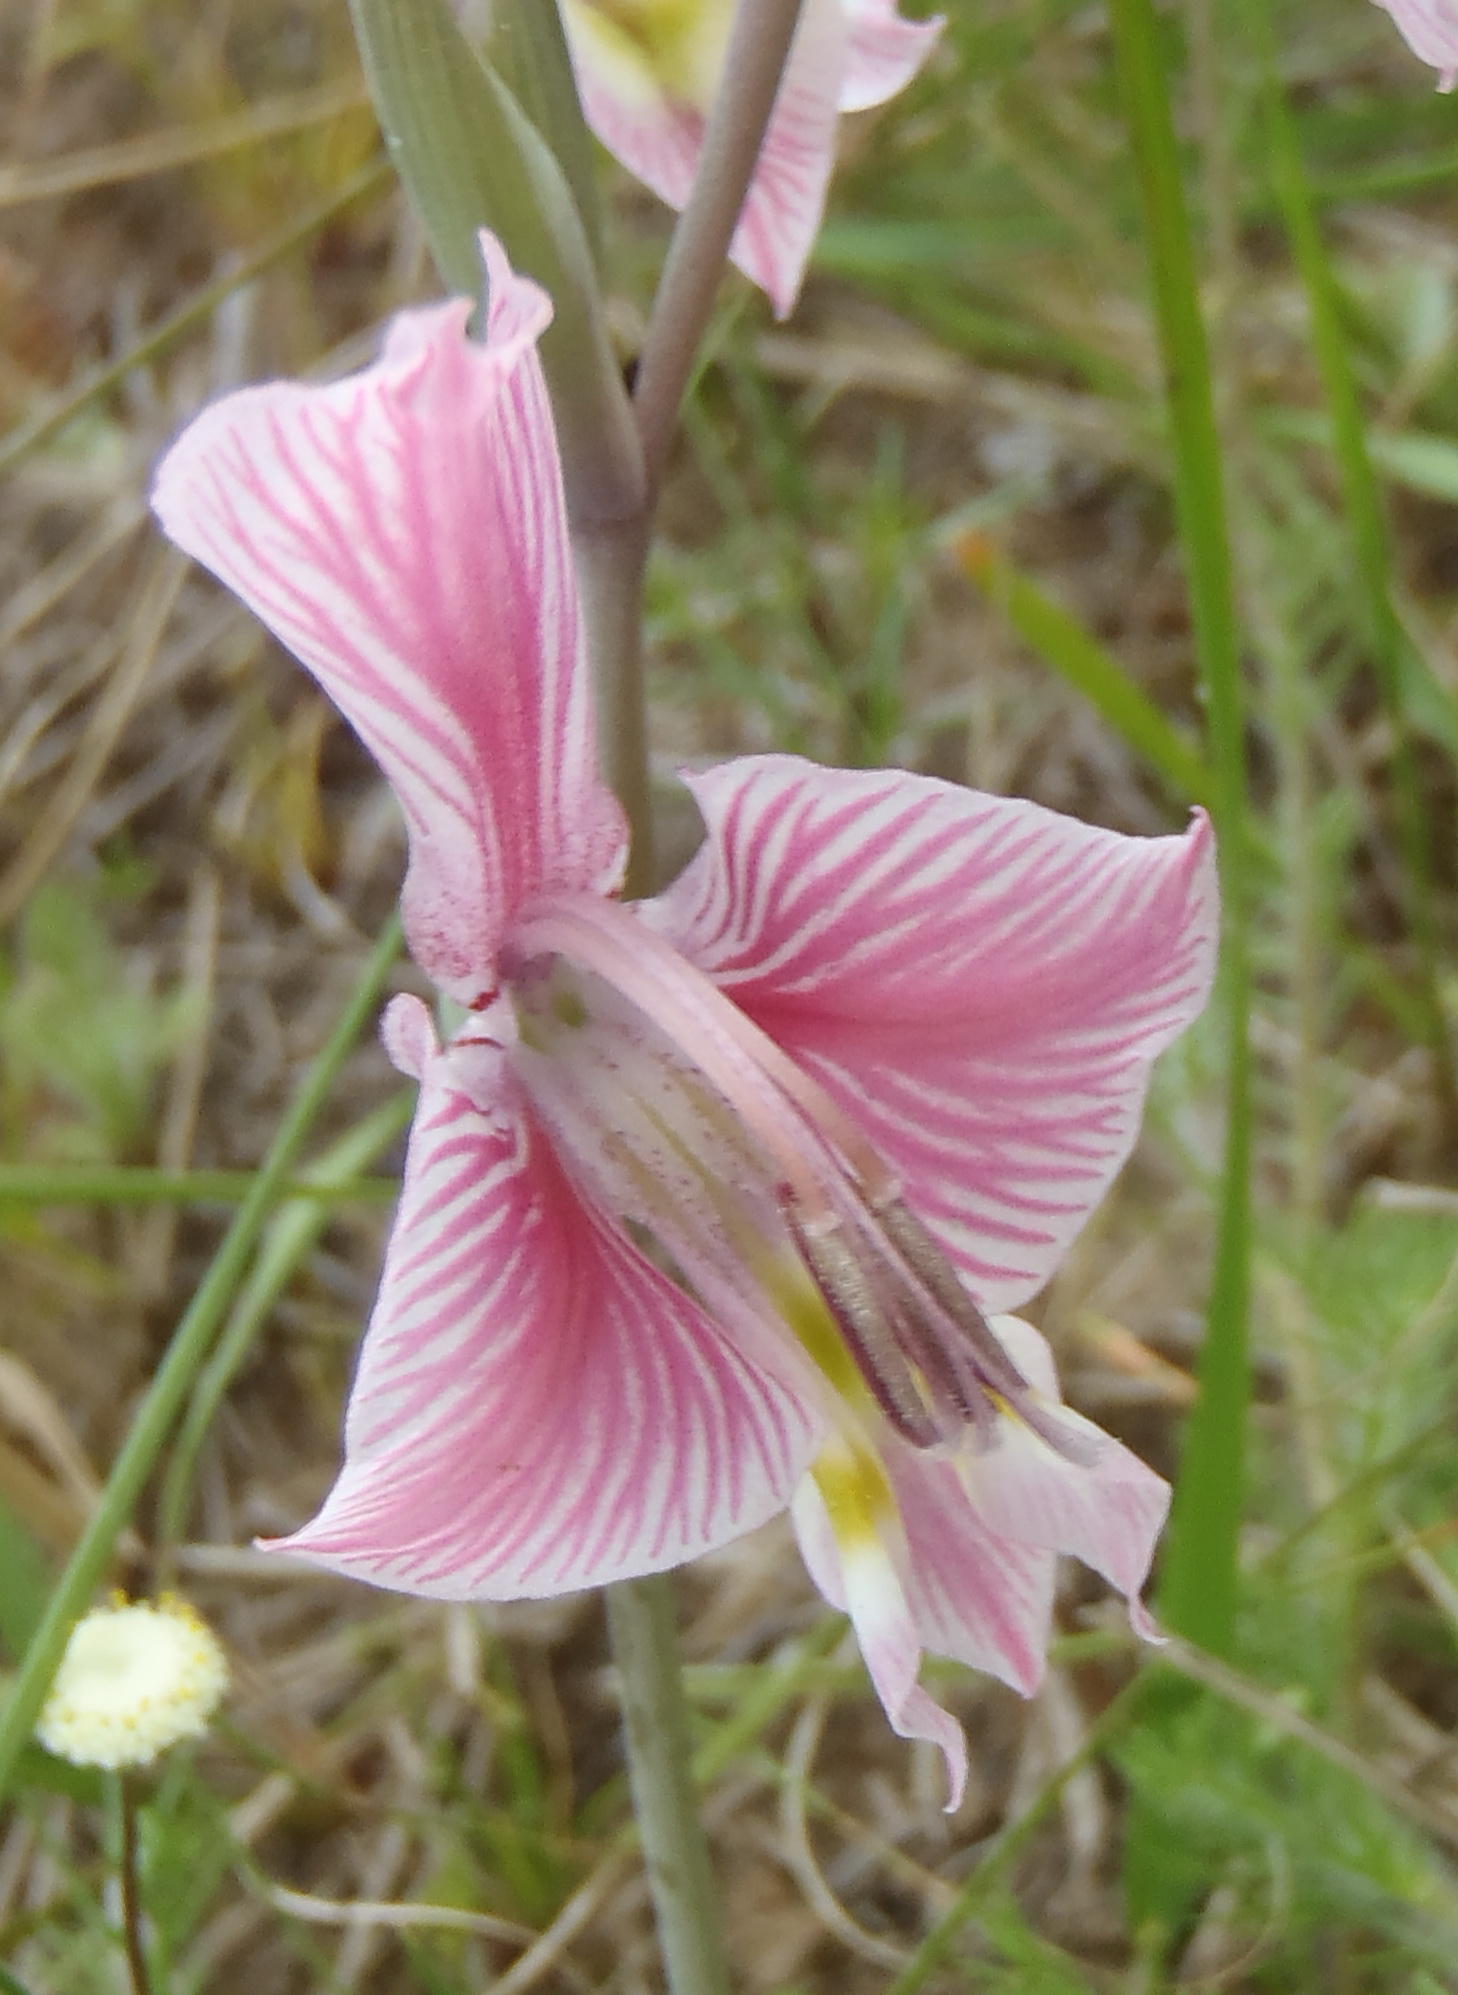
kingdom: Plantae
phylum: Tracheophyta
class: Liliopsida
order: Asparagales
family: Iridaceae
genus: Gladiolus
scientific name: Gladiolus virescens
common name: Yellow kalkoentjie
